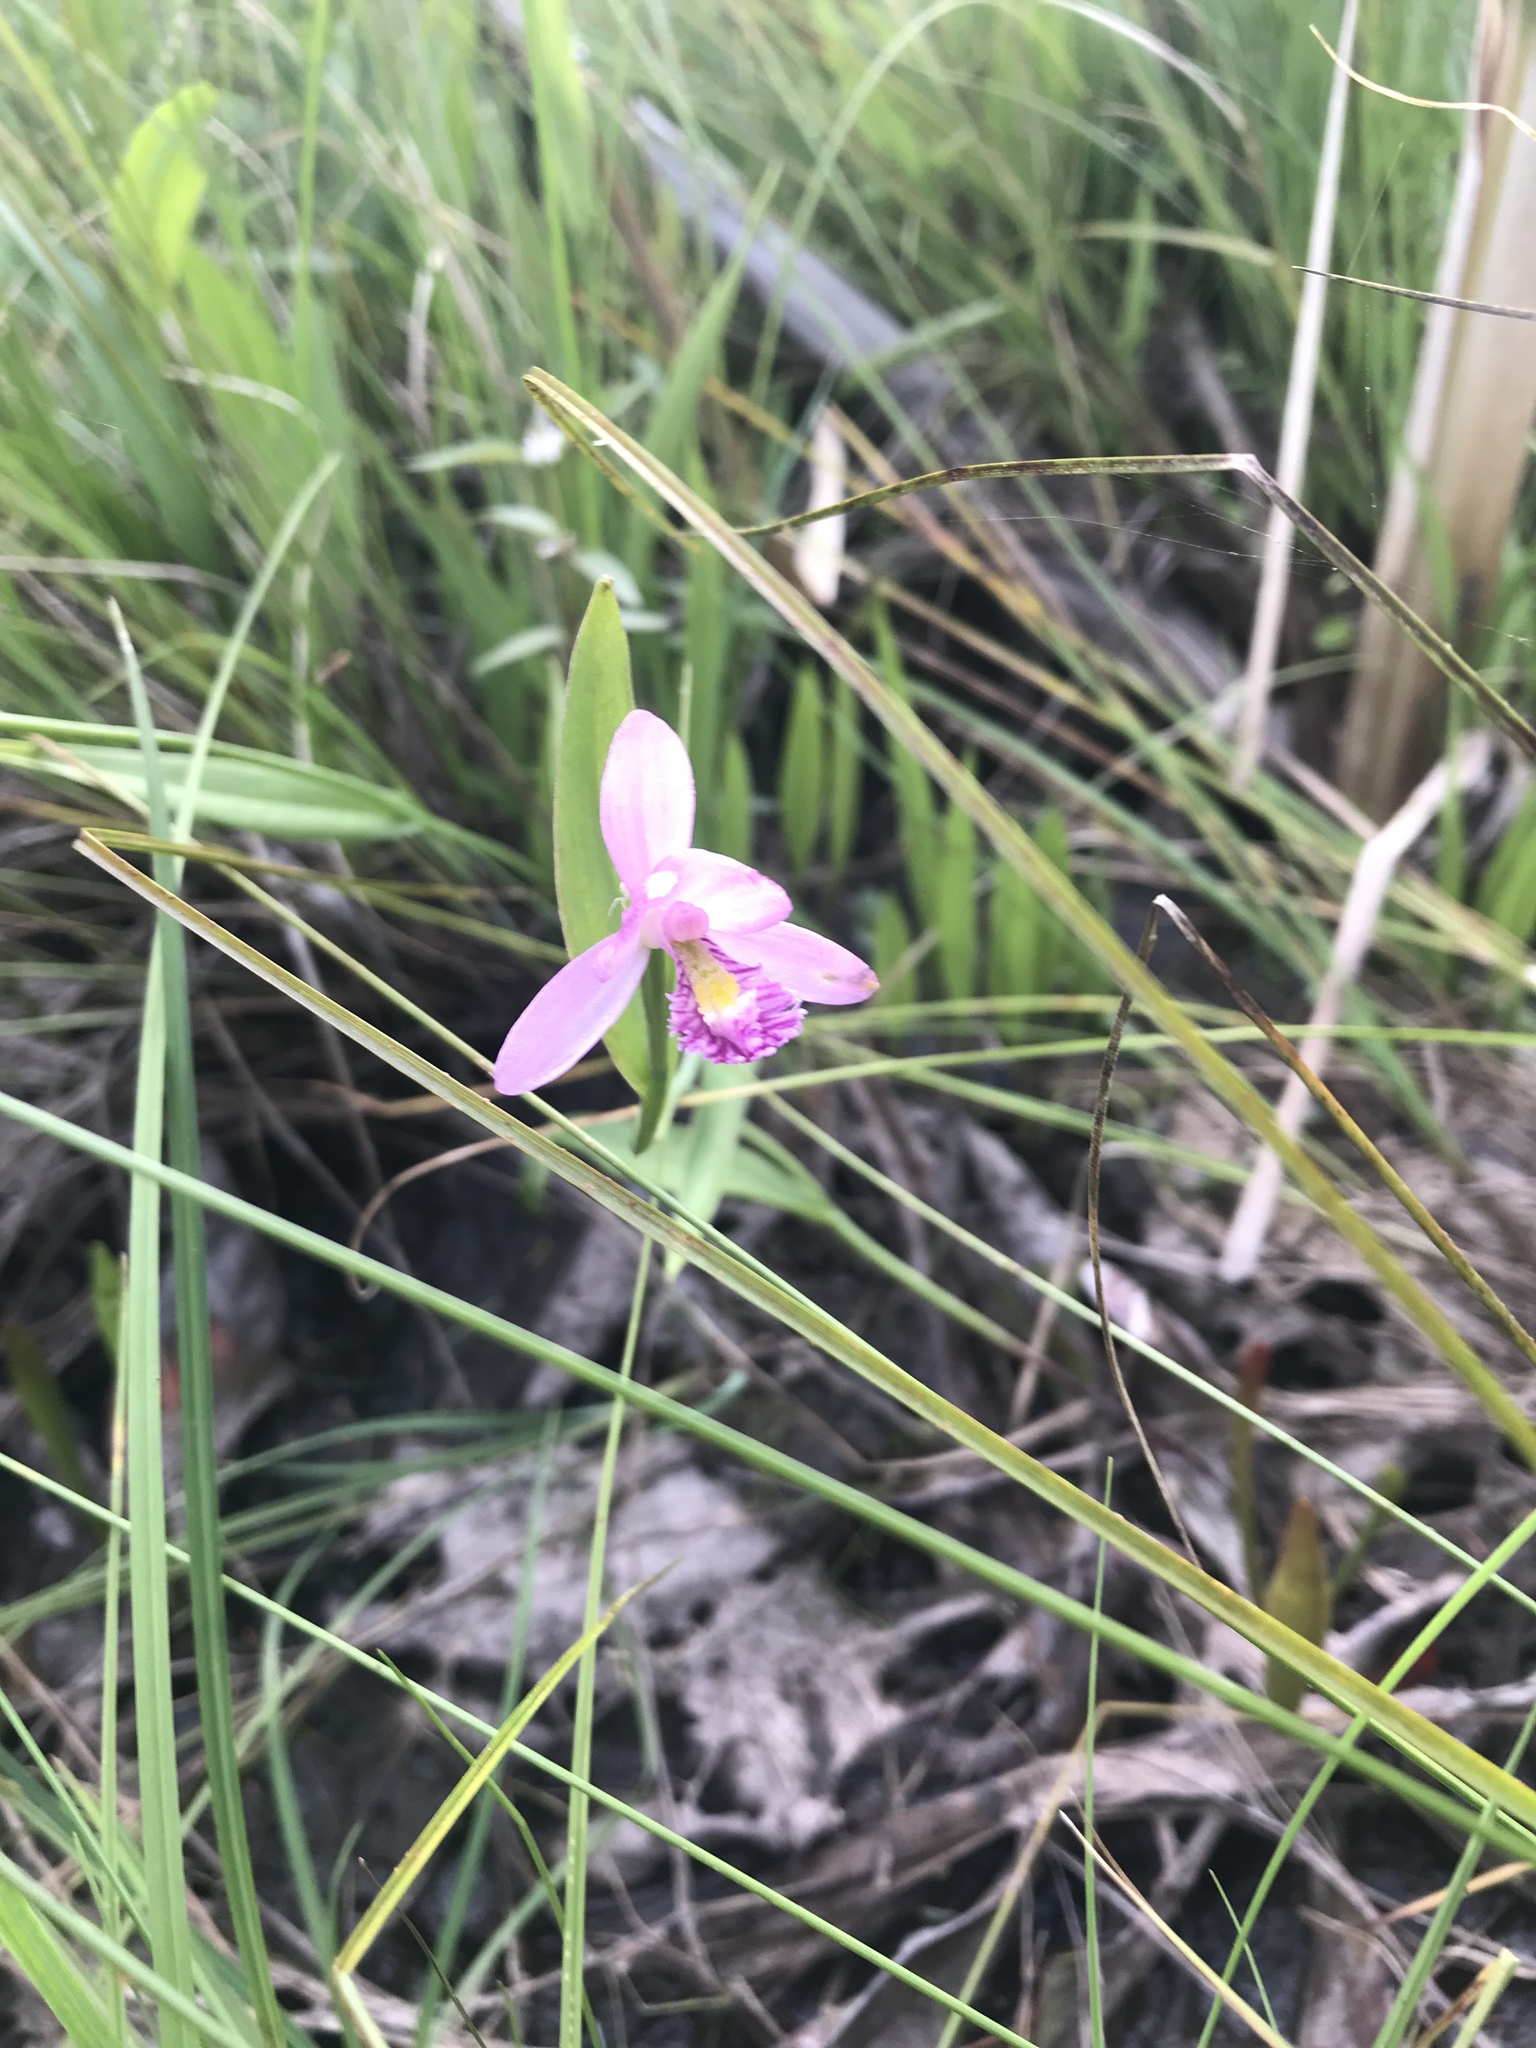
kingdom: Plantae
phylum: Tracheophyta
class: Liliopsida
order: Asparagales
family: Orchidaceae
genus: Pogonia
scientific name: Pogonia ophioglossoides
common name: Rose pogonia
